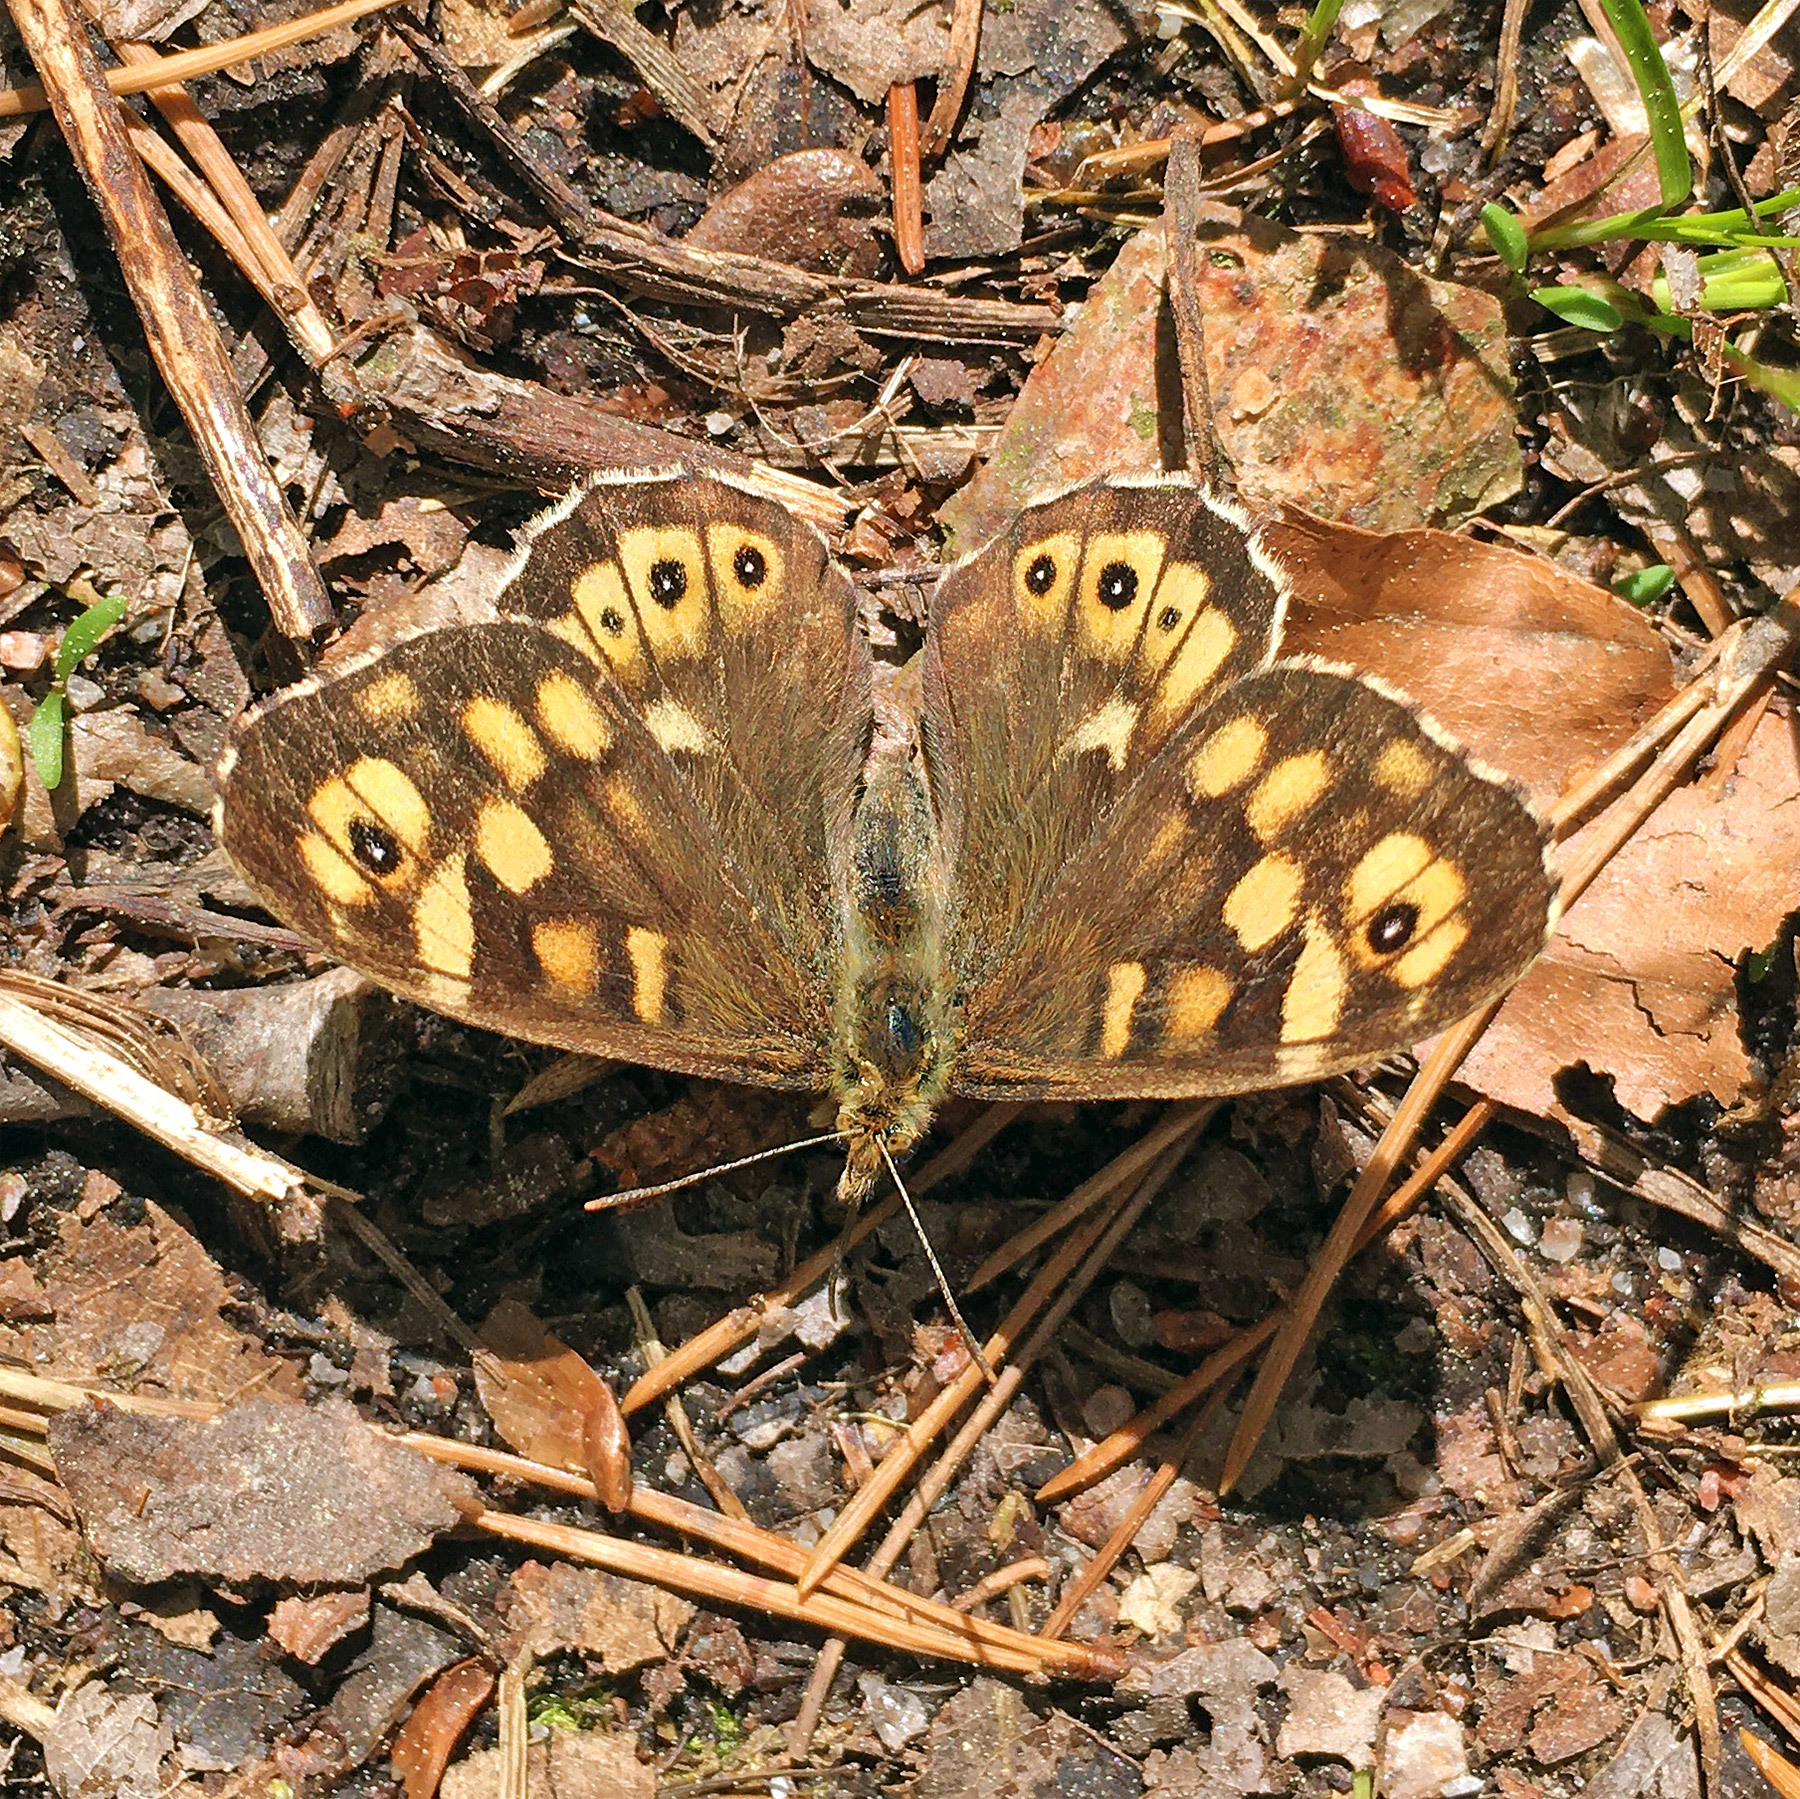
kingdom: Animalia
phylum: Arthropoda
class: Insecta
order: Lepidoptera
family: Nymphalidae
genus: Pararge
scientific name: Pararge aegeria
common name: Speckled wood
